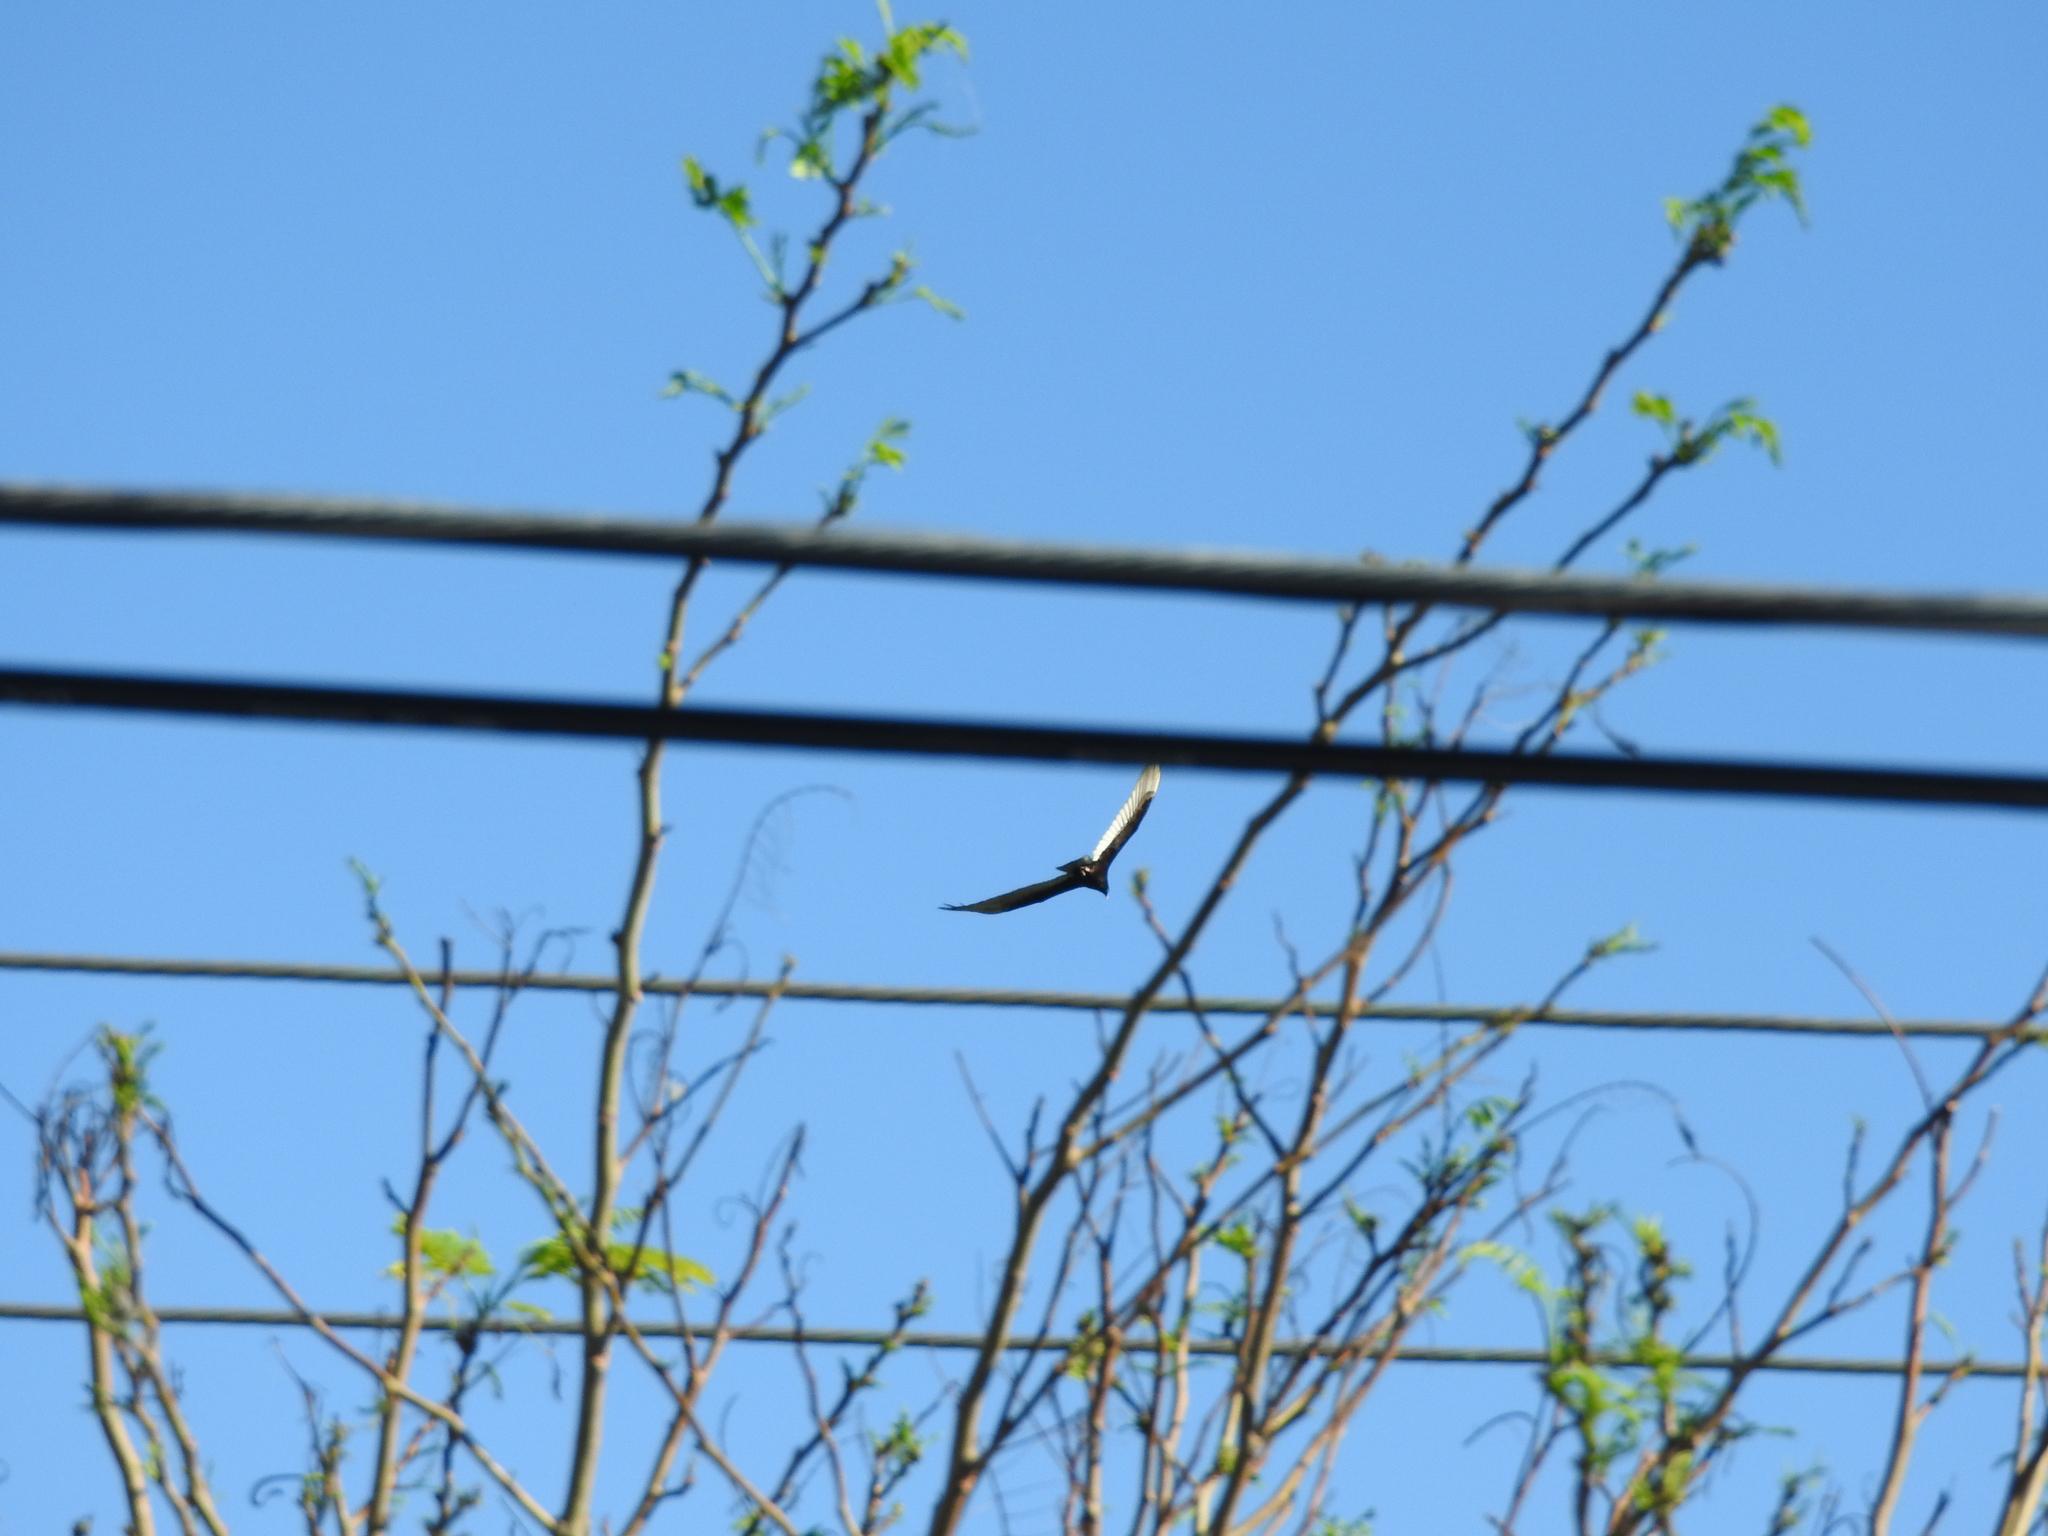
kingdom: Animalia
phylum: Chordata
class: Aves
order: Accipitriformes
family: Cathartidae
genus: Cathartes
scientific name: Cathartes aura
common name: Turkey vulture
